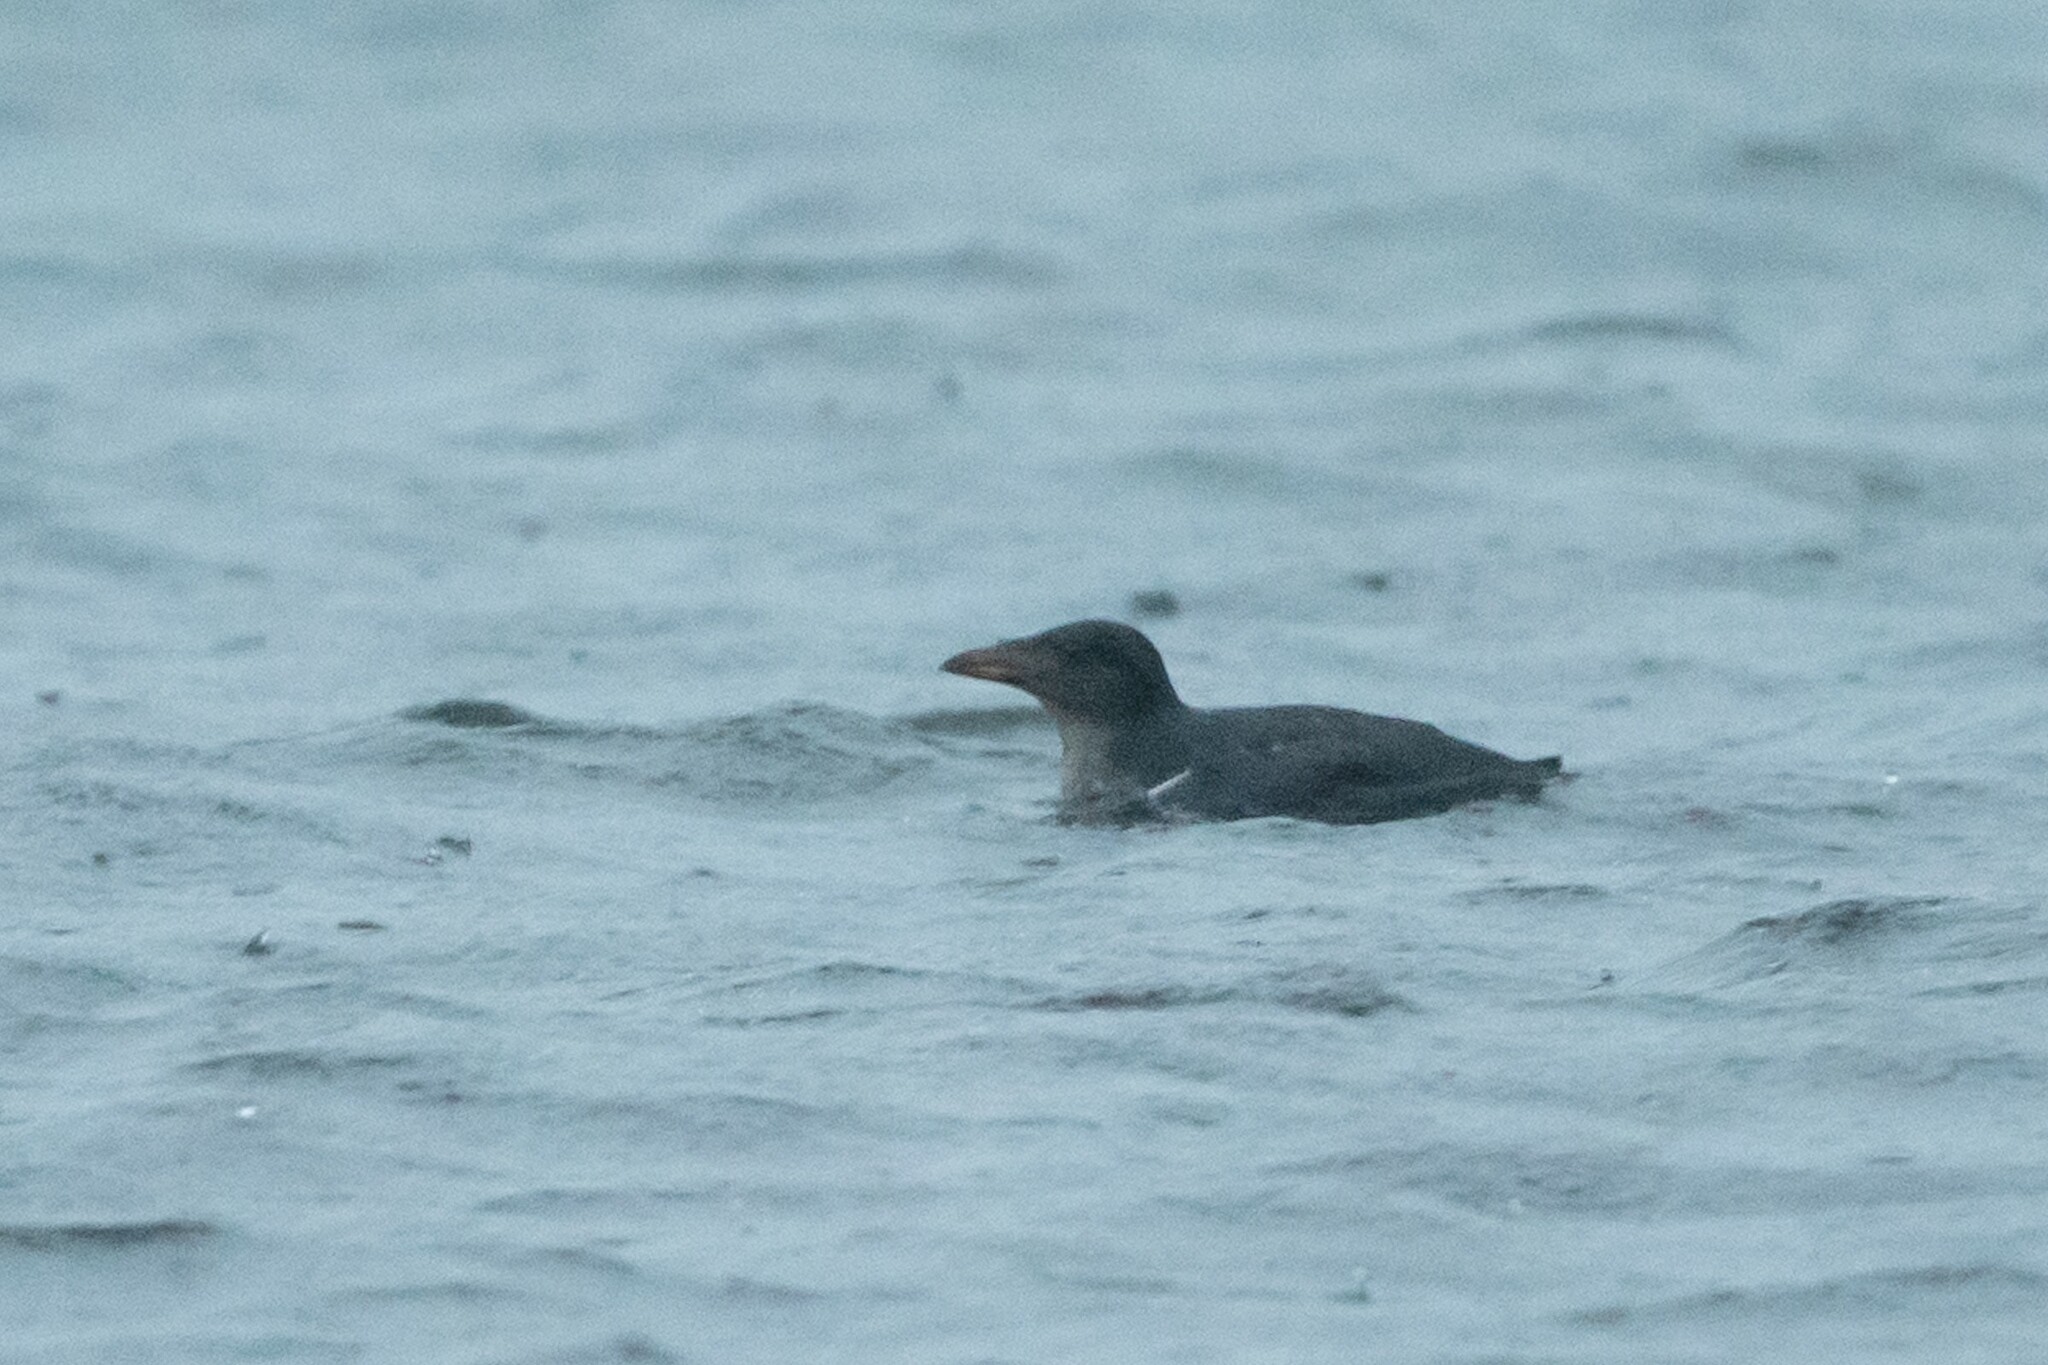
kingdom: Animalia
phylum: Chordata
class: Aves
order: Charadriiformes
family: Alcidae
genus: Cerorhinca
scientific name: Cerorhinca monocerata
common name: Rhinoceros auklet
